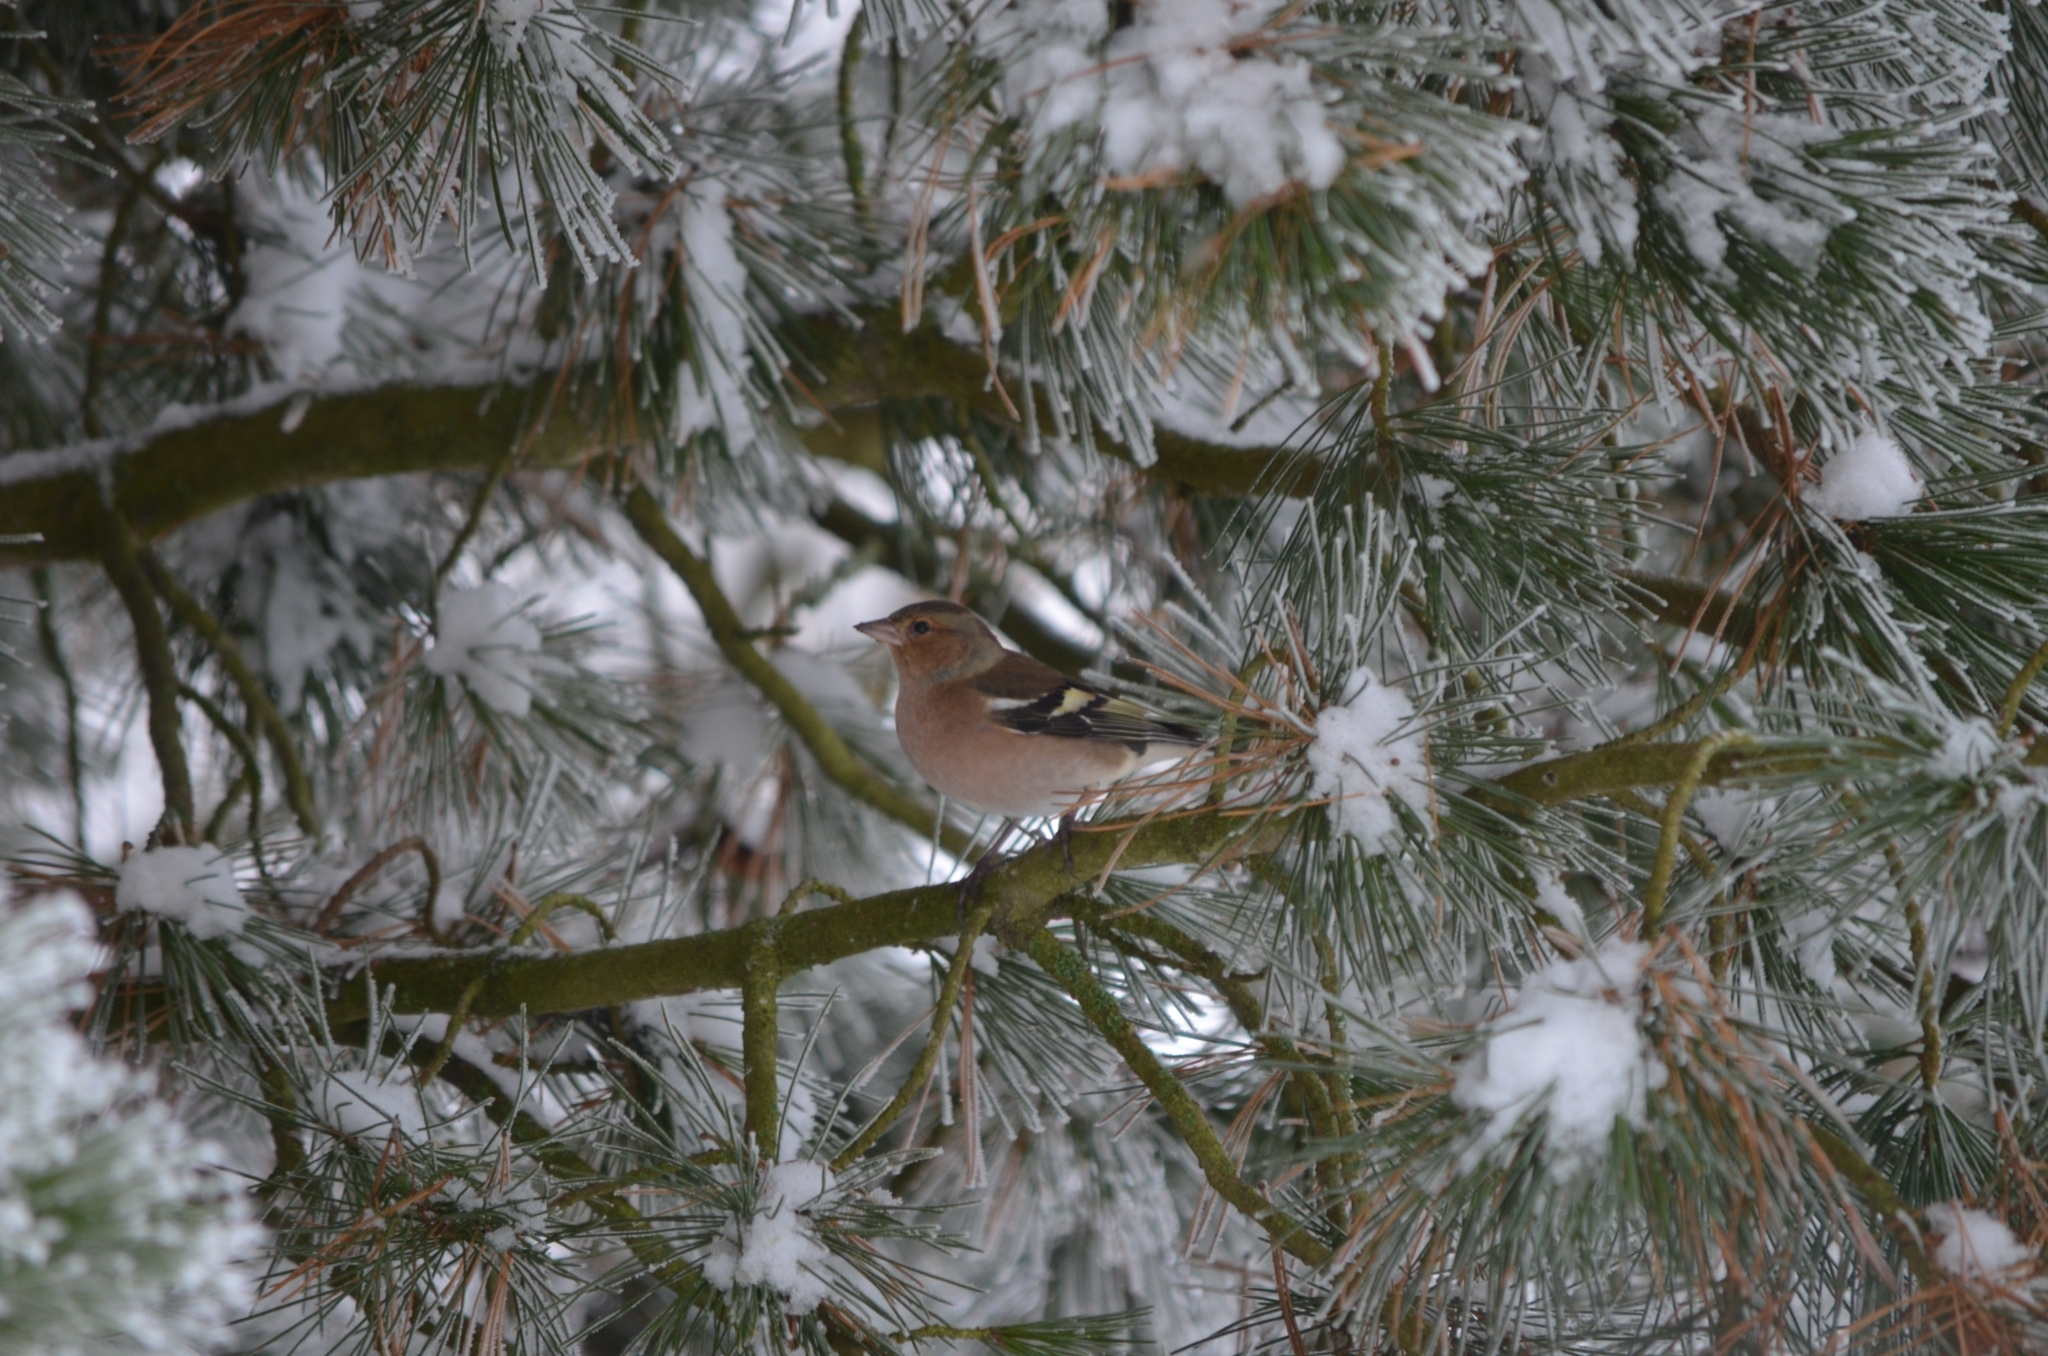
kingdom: Animalia
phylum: Chordata
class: Aves
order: Passeriformes
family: Fringillidae
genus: Fringilla
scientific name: Fringilla coelebs
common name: Common chaffinch
